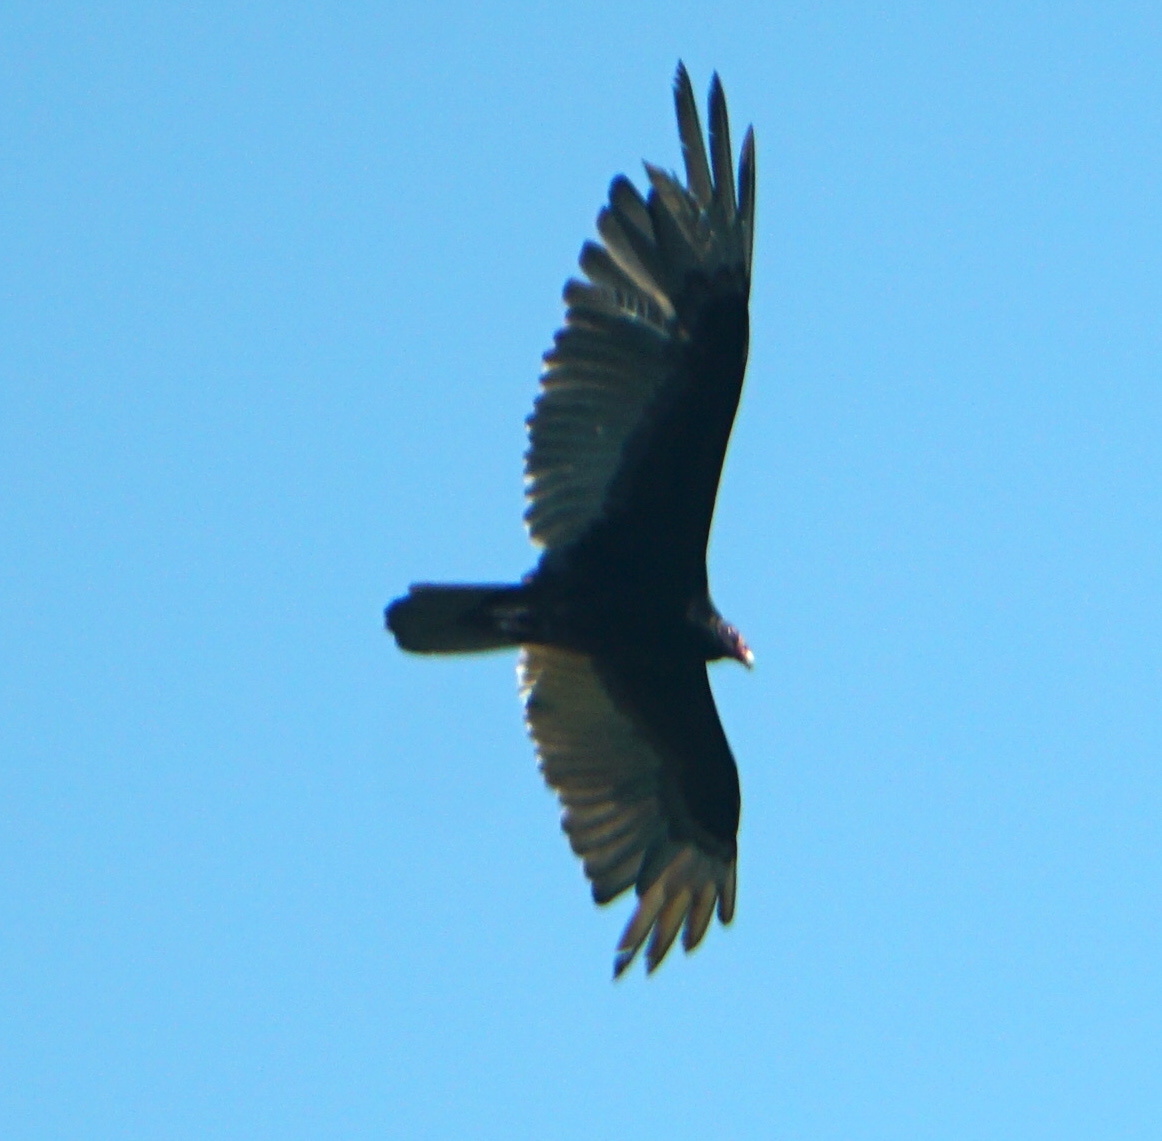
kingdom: Animalia
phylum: Chordata
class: Aves
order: Accipitriformes
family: Cathartidae
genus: Cathartes
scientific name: Cathartes aura
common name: Turkey vulture
